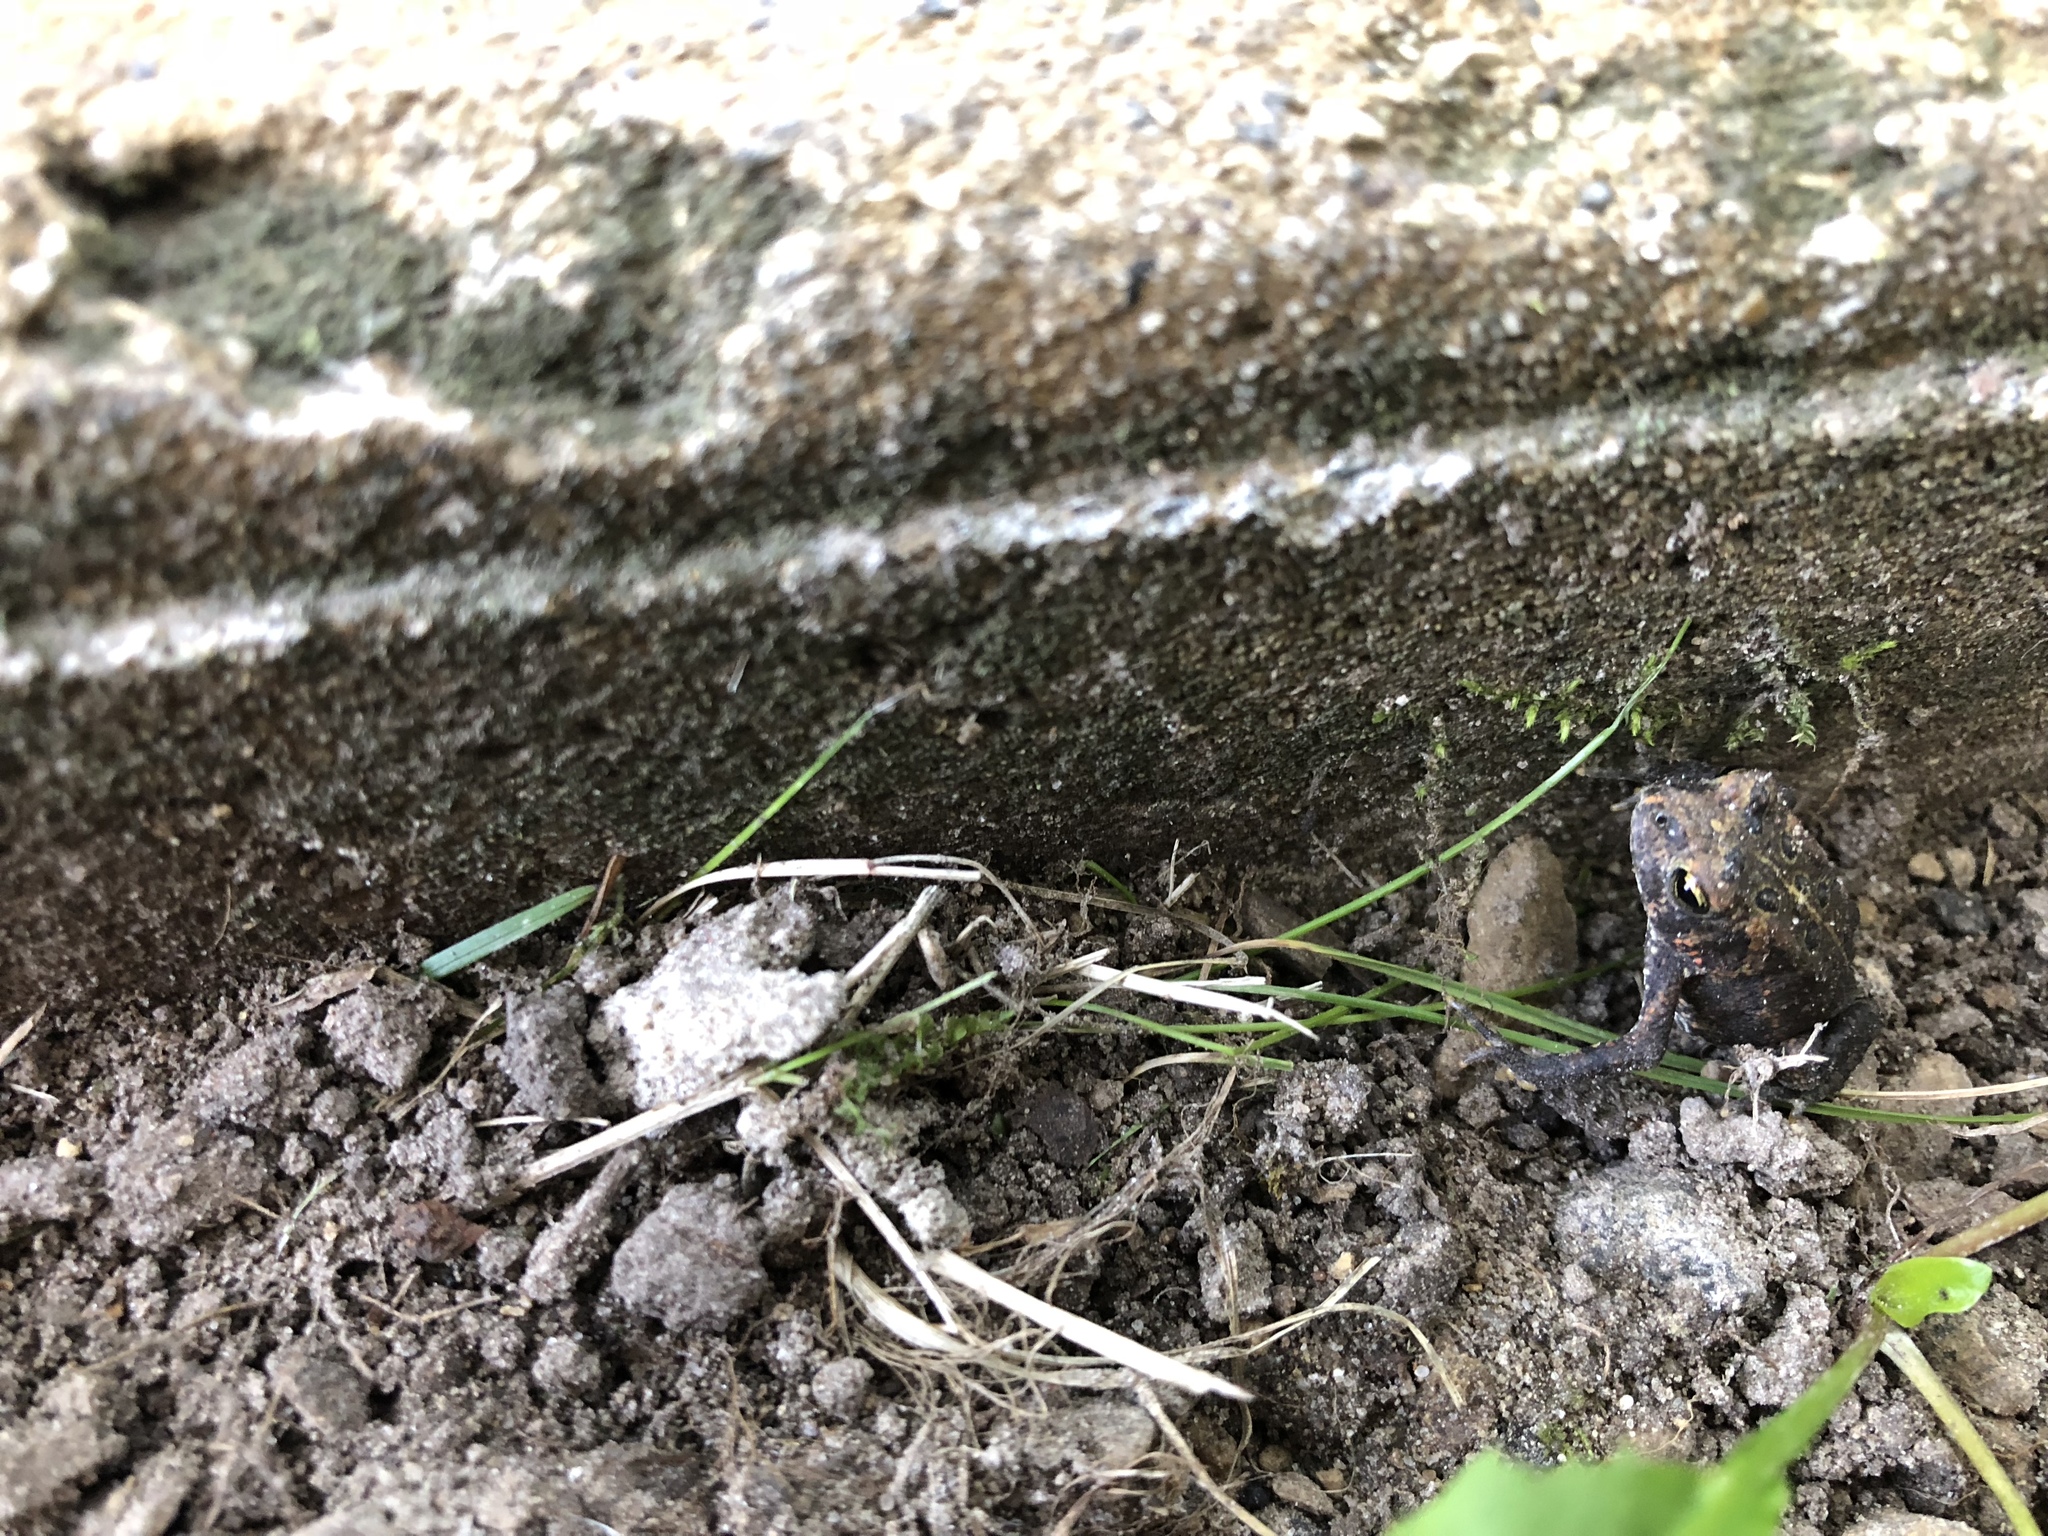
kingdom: Animalia
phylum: Chordata
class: Amphibia
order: Anura
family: Bufonidae
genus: Anaxyrus
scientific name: Anaxyrus americanus
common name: American toad
